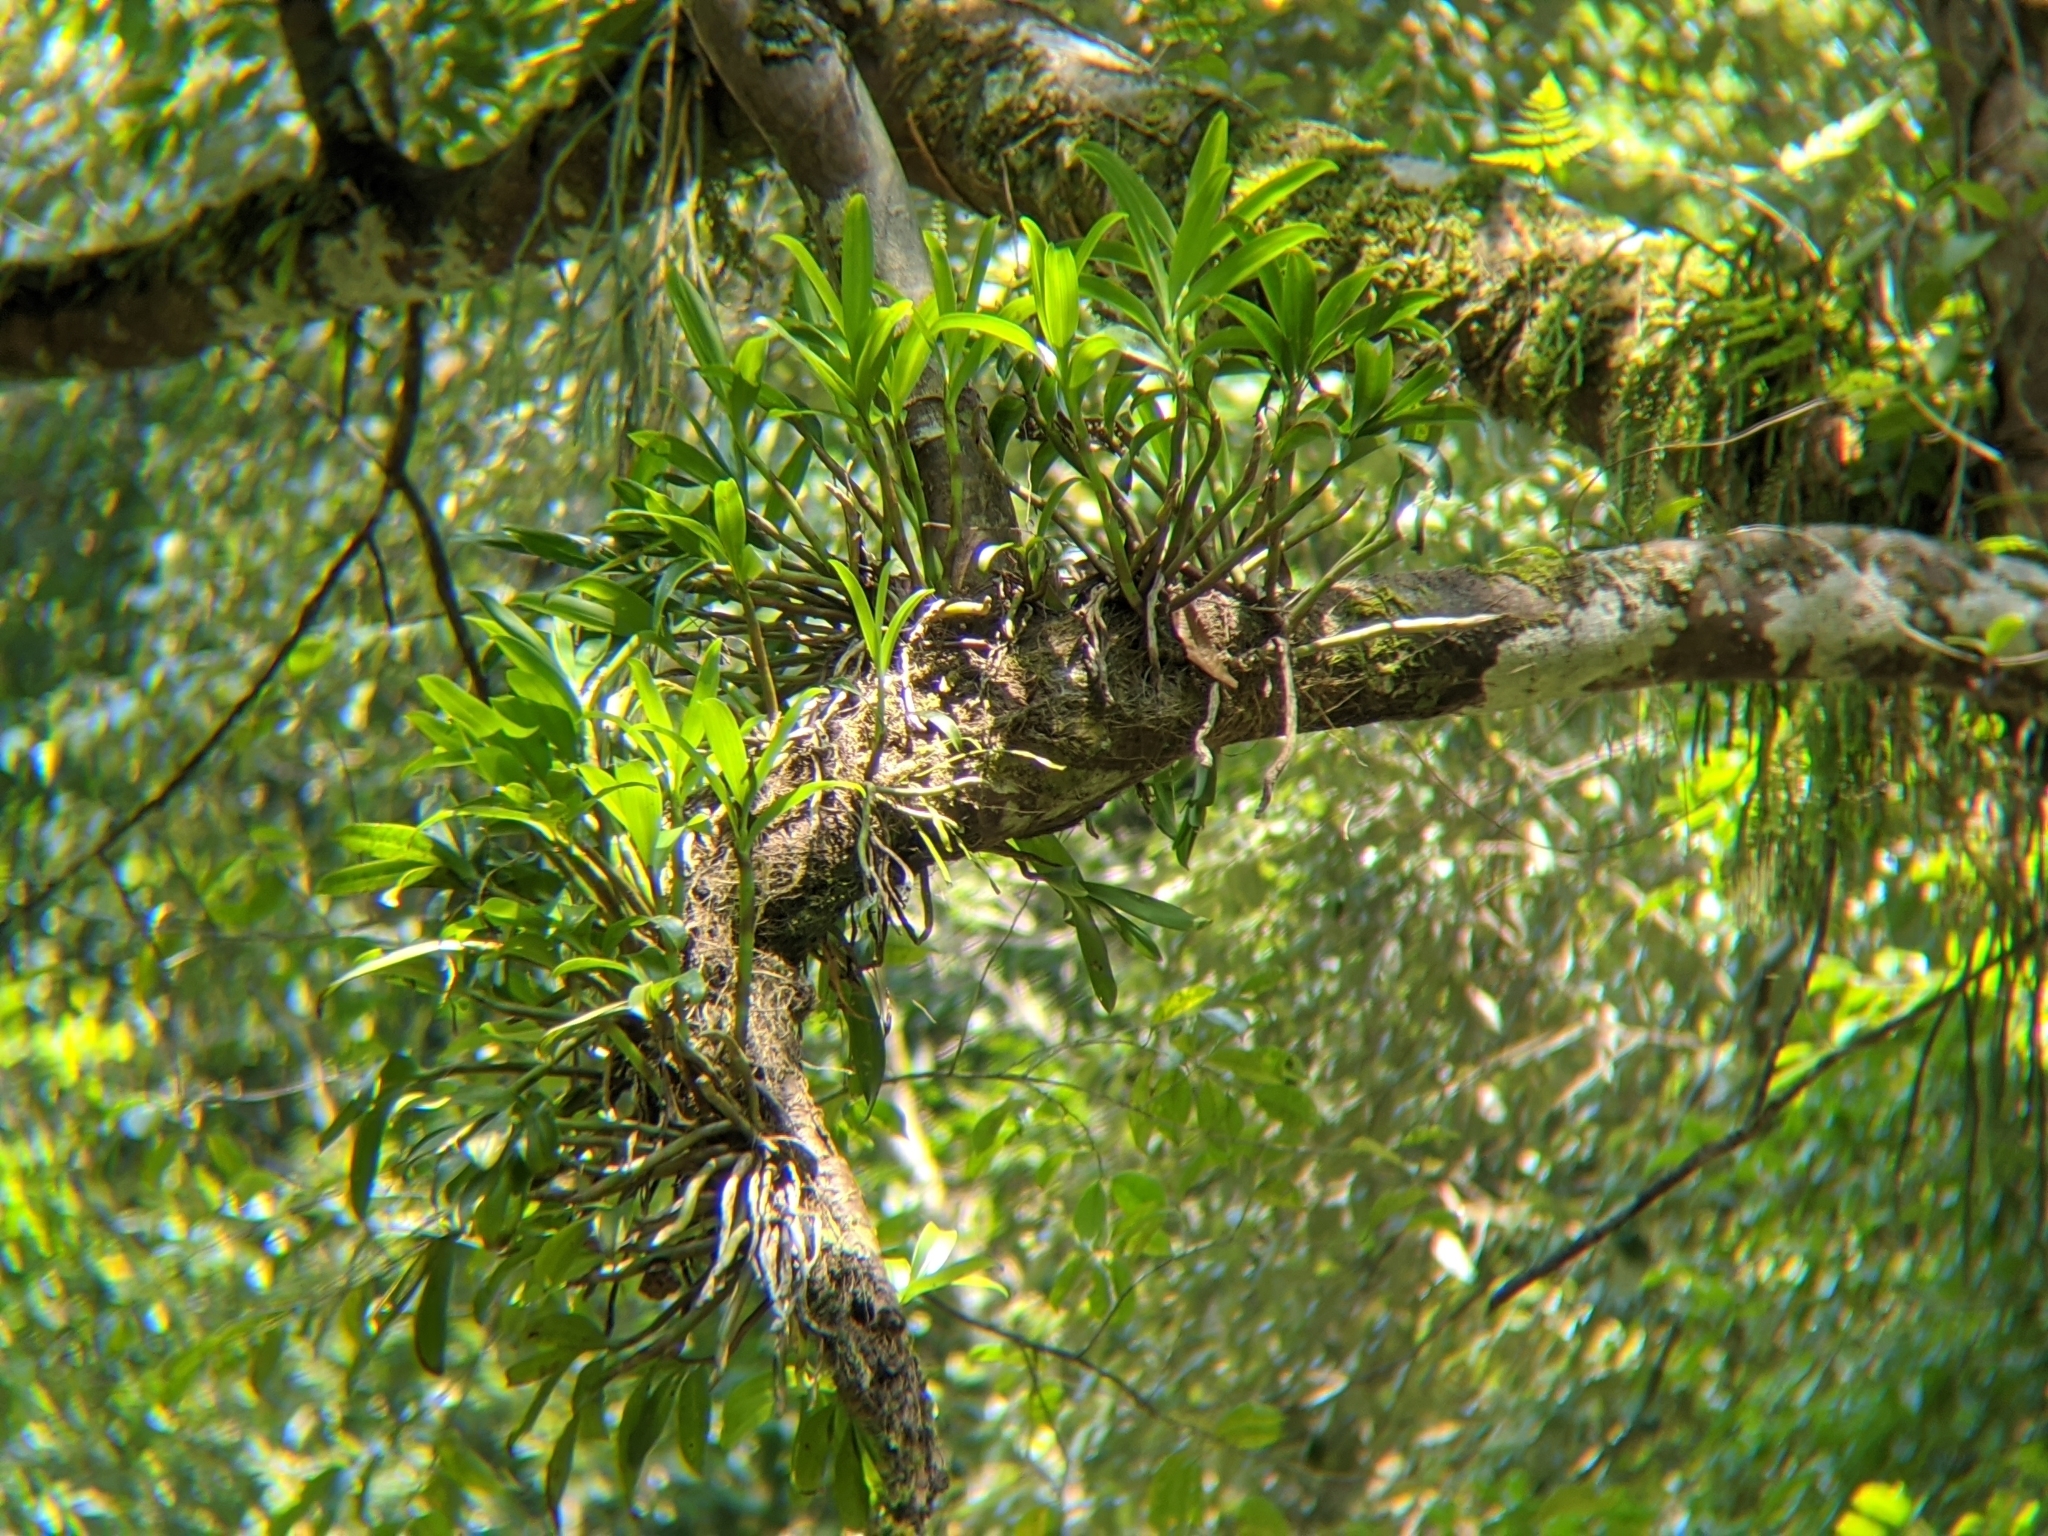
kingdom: Plantae
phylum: Tracheophyta
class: Liliopsida
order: Asparagales
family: Orchidaceae
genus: Pinalia
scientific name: Pinalia ovata
